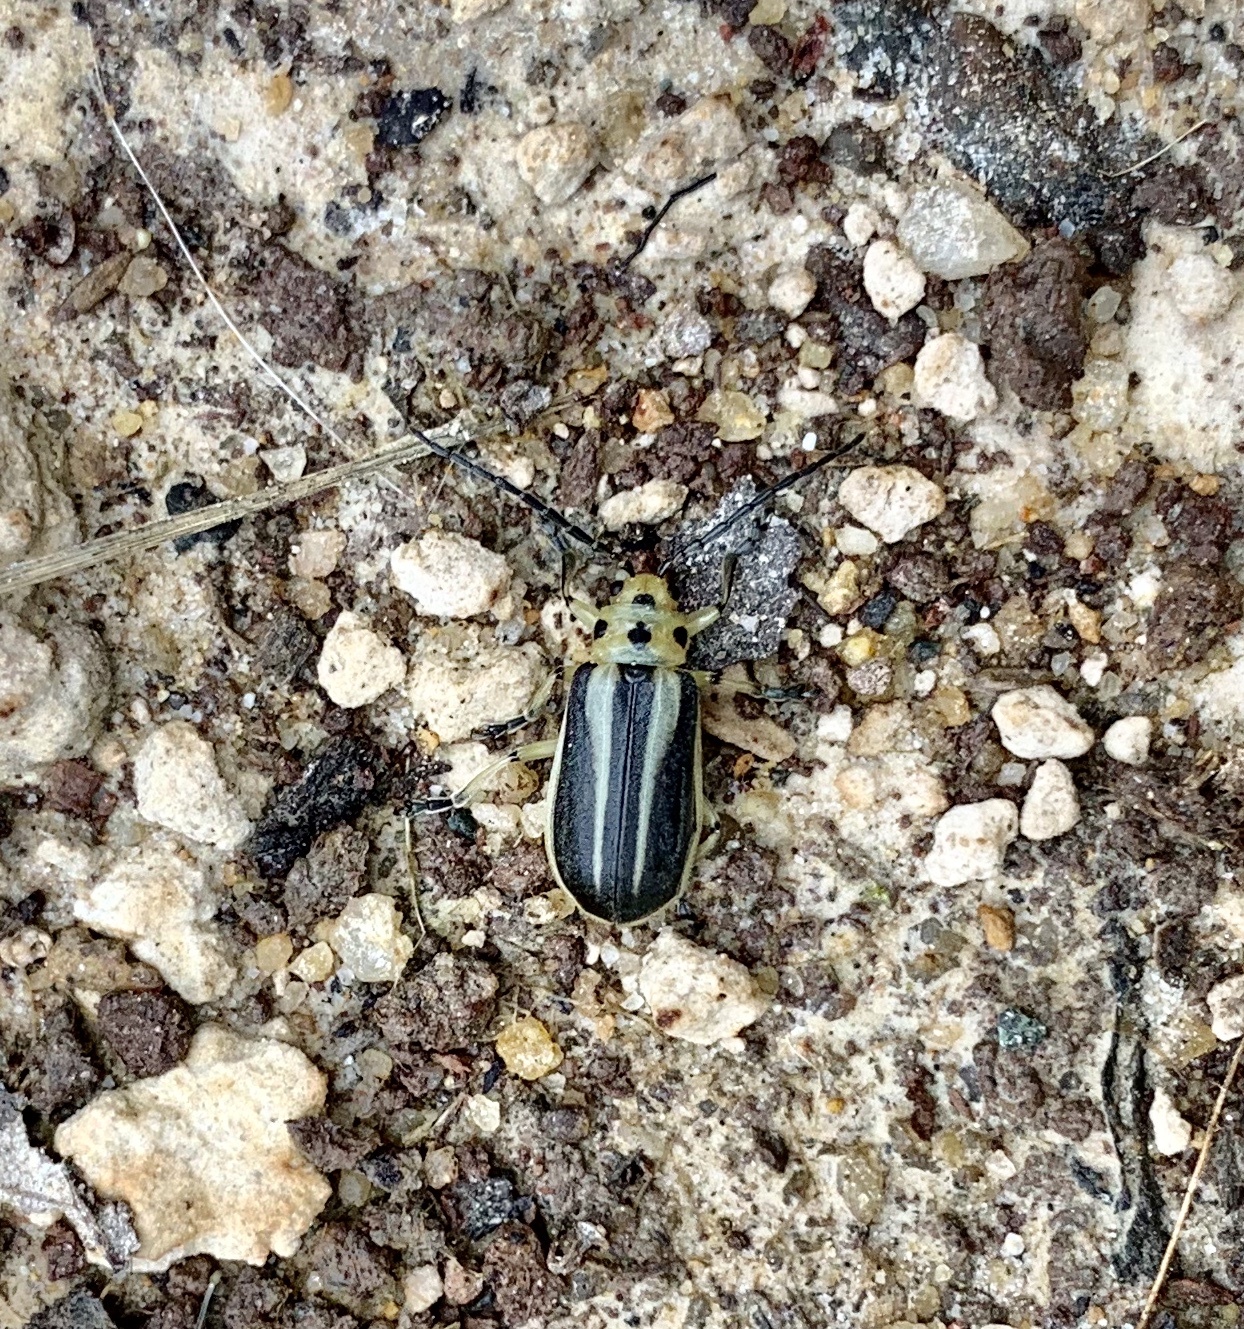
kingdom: Animalia
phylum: Arthropoda
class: Insecta
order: Coleoptera
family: Chrysomelidae
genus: Trirhabda
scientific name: Trirhabda bacharidis
